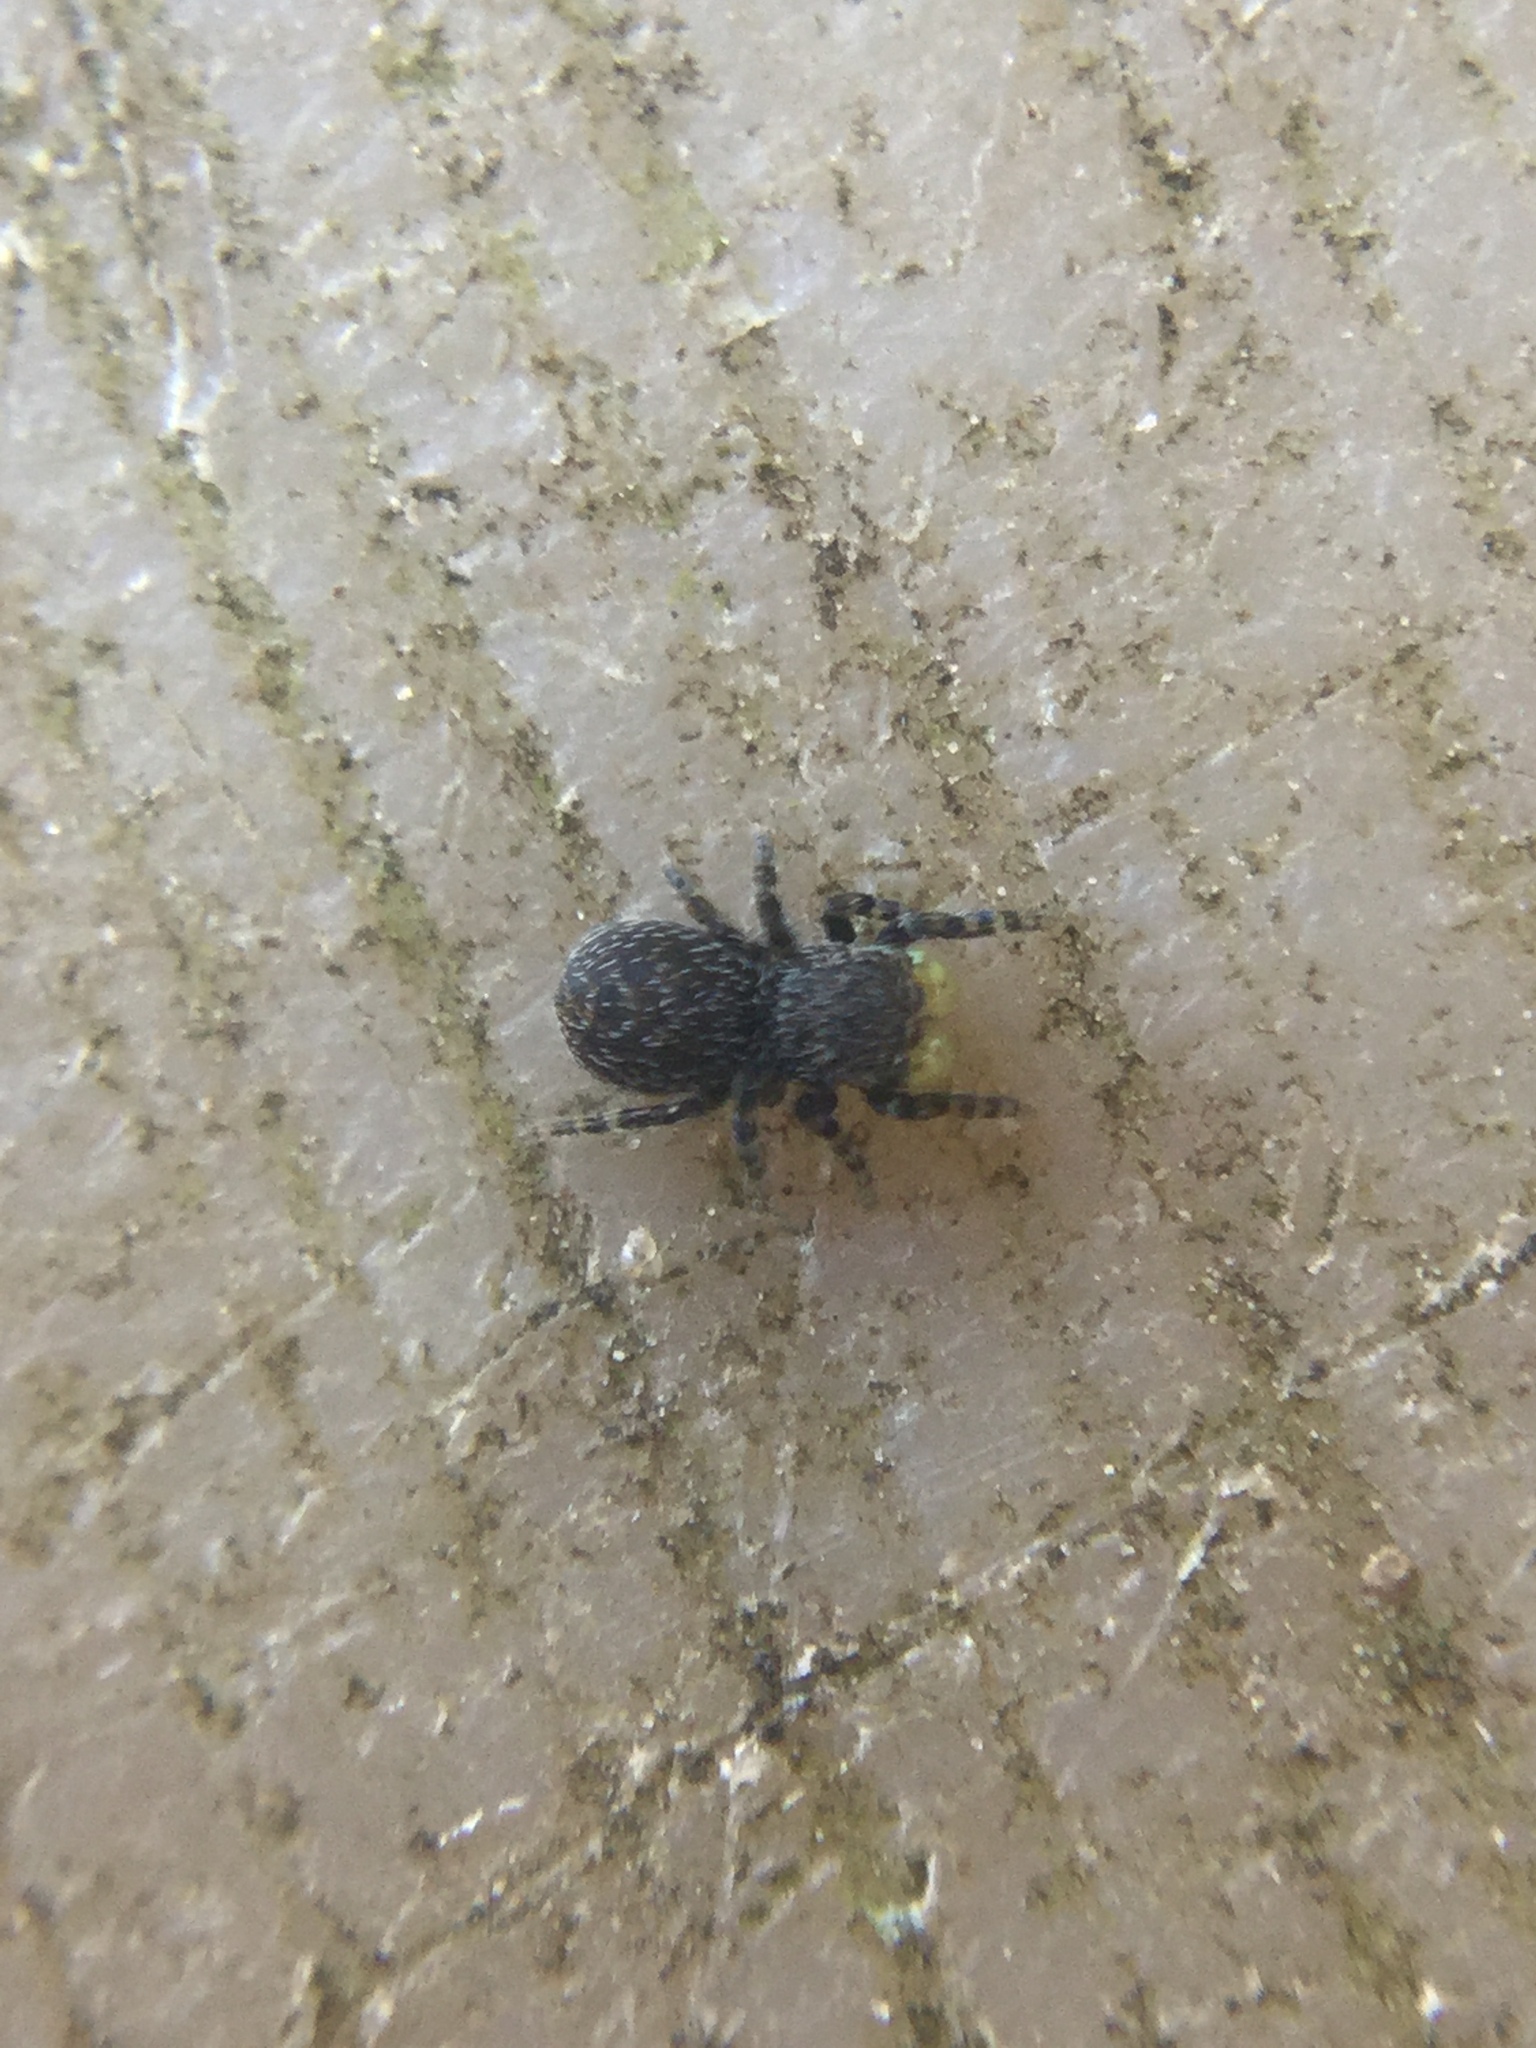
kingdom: Animalia
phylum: Arthropoda
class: Arachnida
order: Araneae
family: Salticidae
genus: Talavera
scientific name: Talavera minuta
